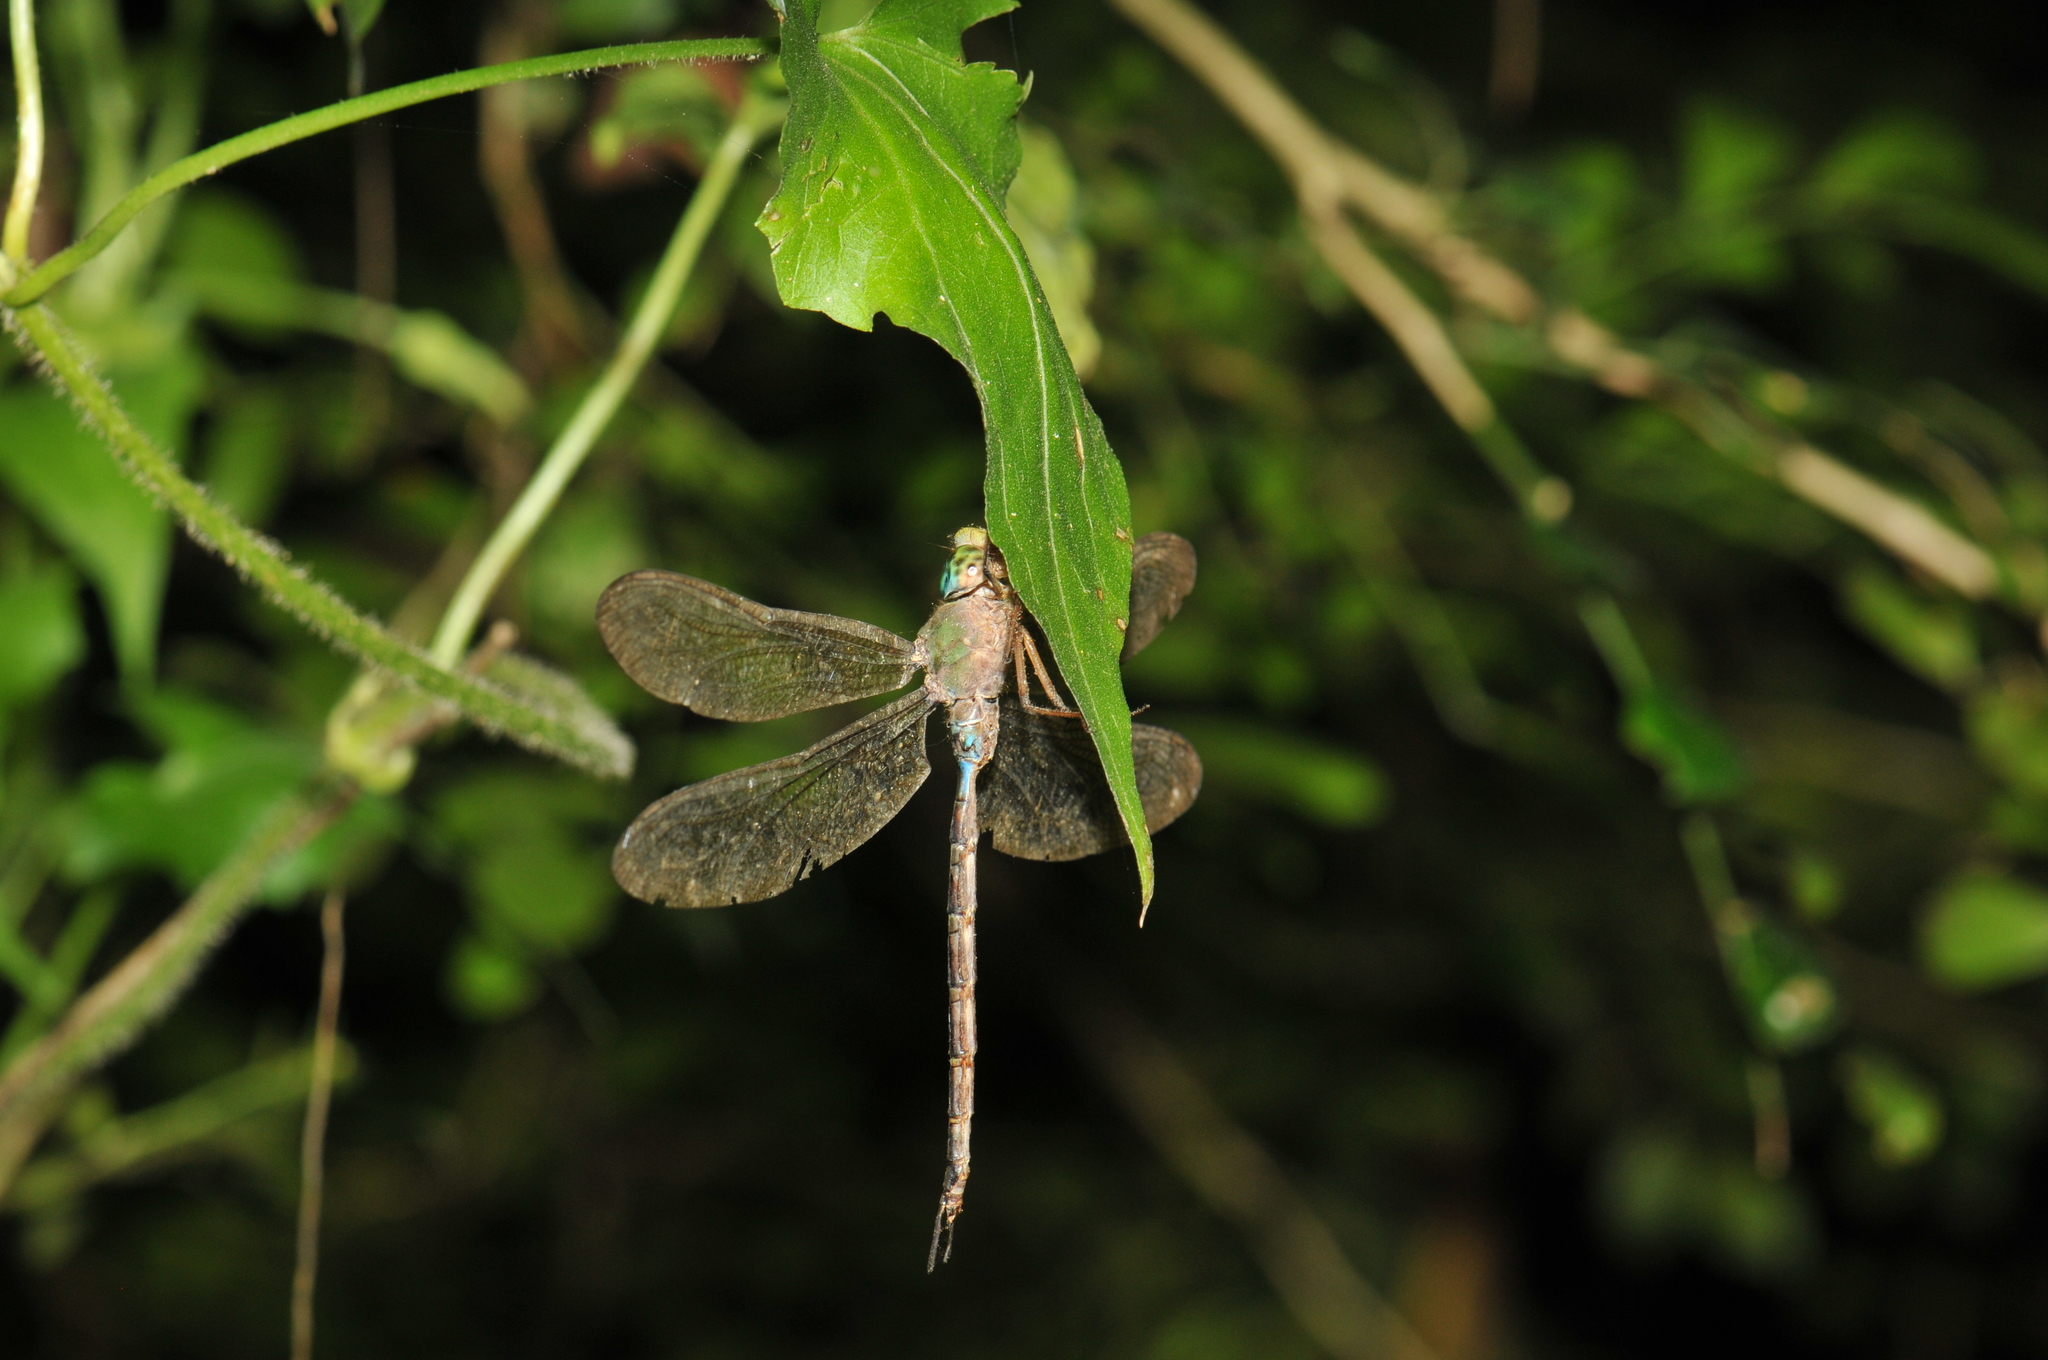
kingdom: Animalia
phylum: Arthropoda
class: Insecta
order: Odonata
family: Aeshnidae
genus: Gynacantha
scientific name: Gynacantha japonica
